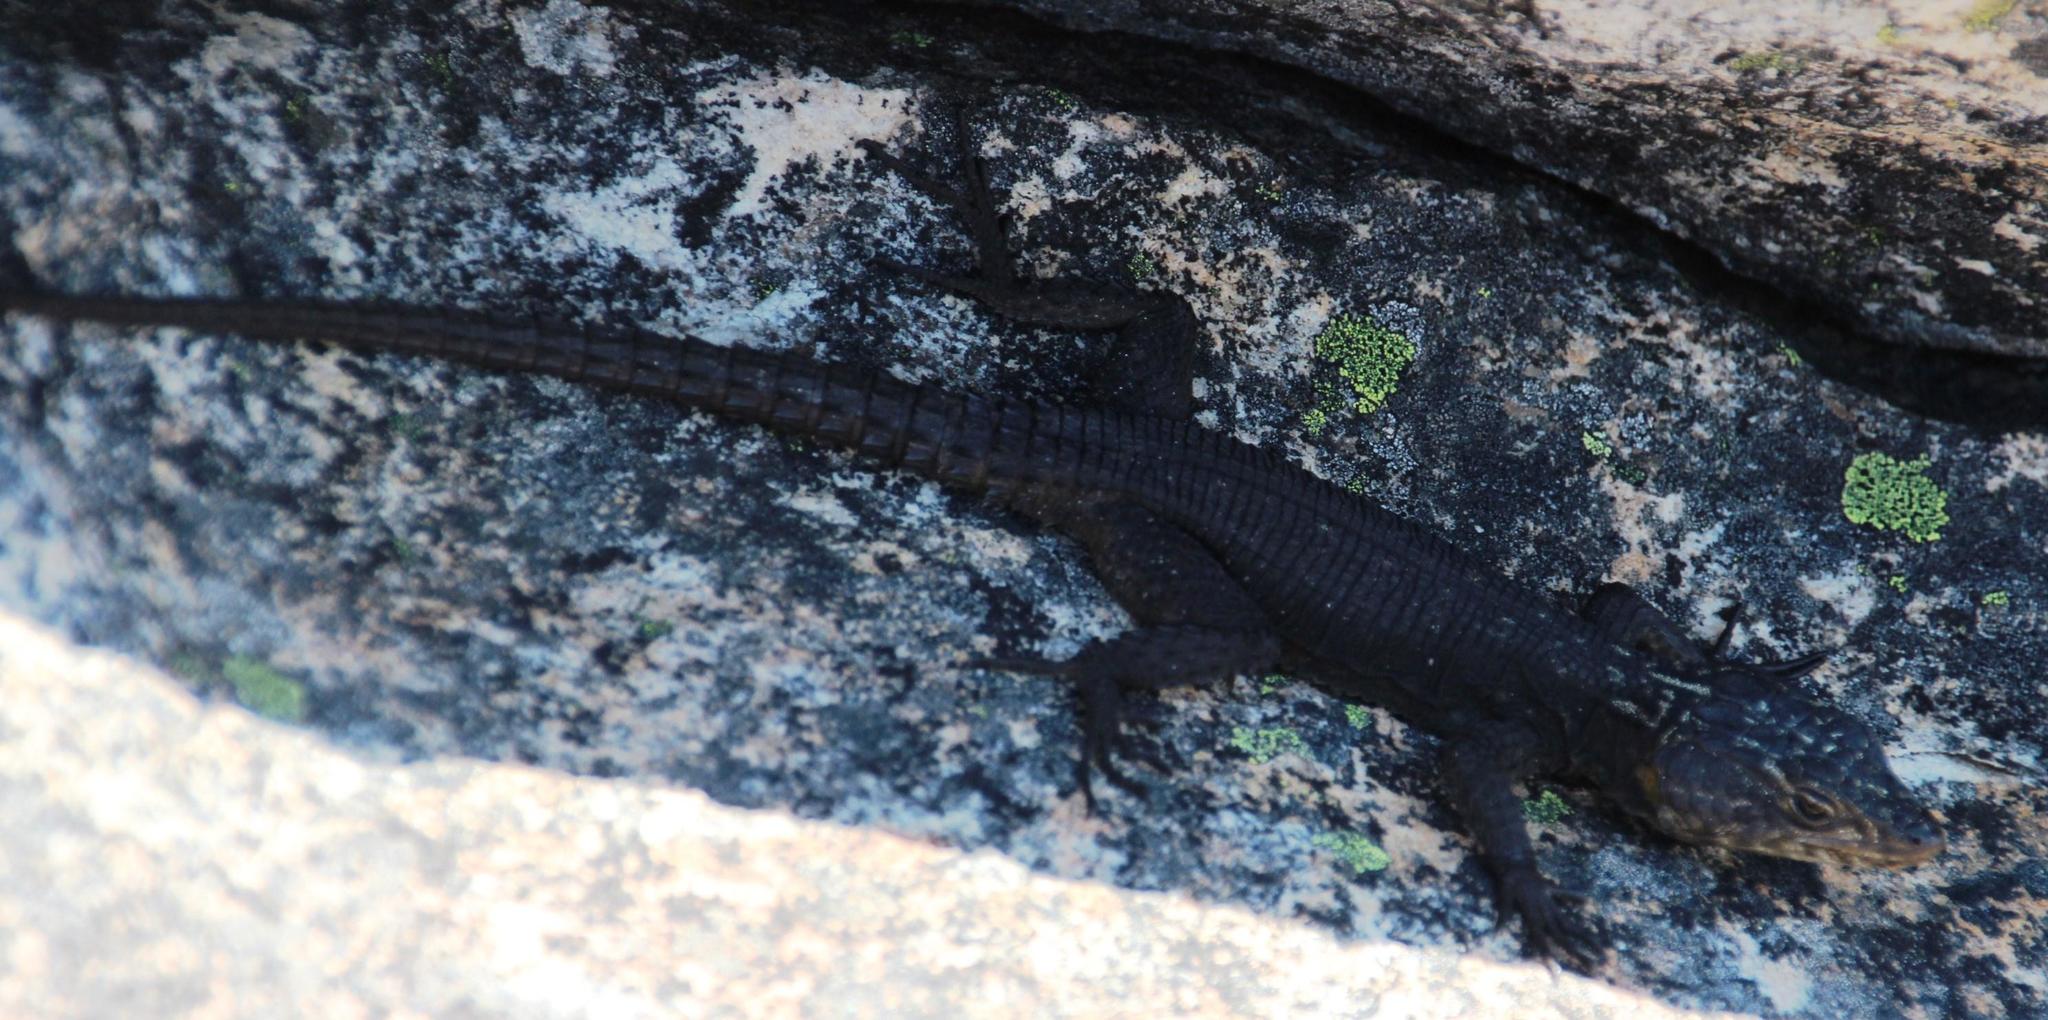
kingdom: Animalia
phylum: Chordata
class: Squamata
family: Cordylidae
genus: Hemicordylus
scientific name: Hemicordylus capensis
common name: Graceful crag lizard
